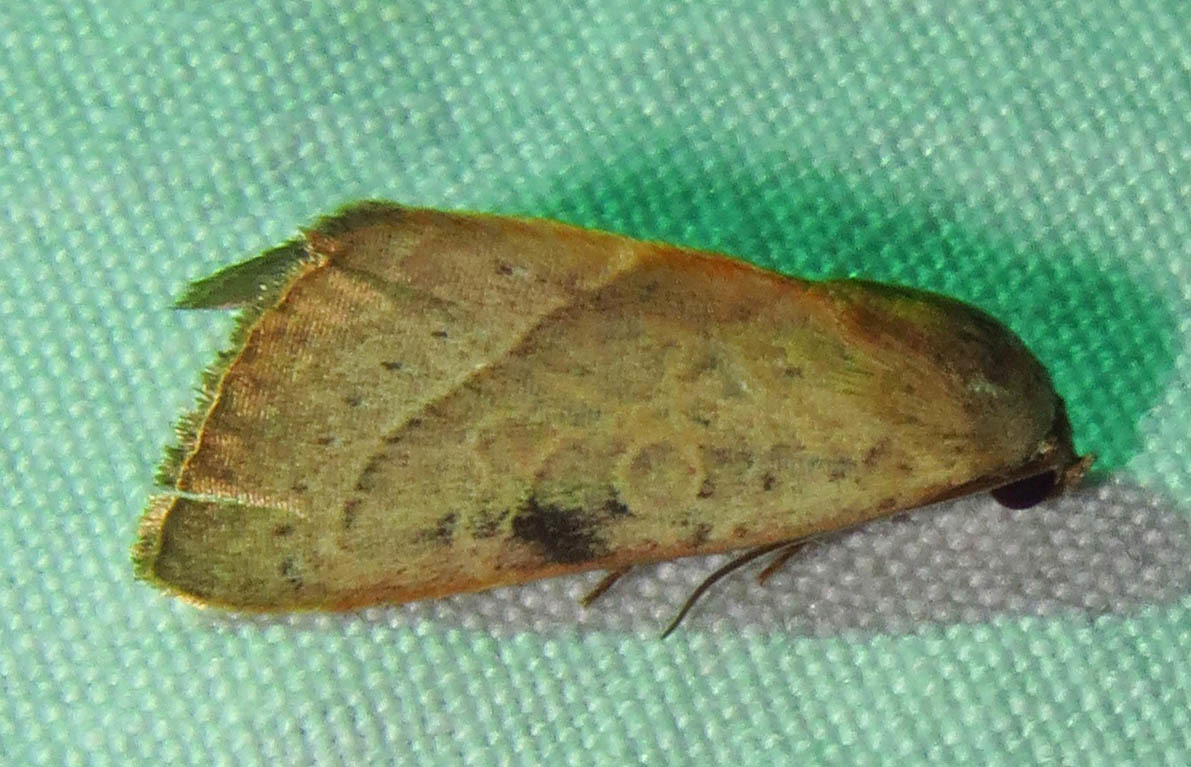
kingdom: Animalia
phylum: Arthropoda
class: Insecta
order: Lepidoptera
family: Noctuidae
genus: Galgula
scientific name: Galgula partita
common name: Wedgeling
